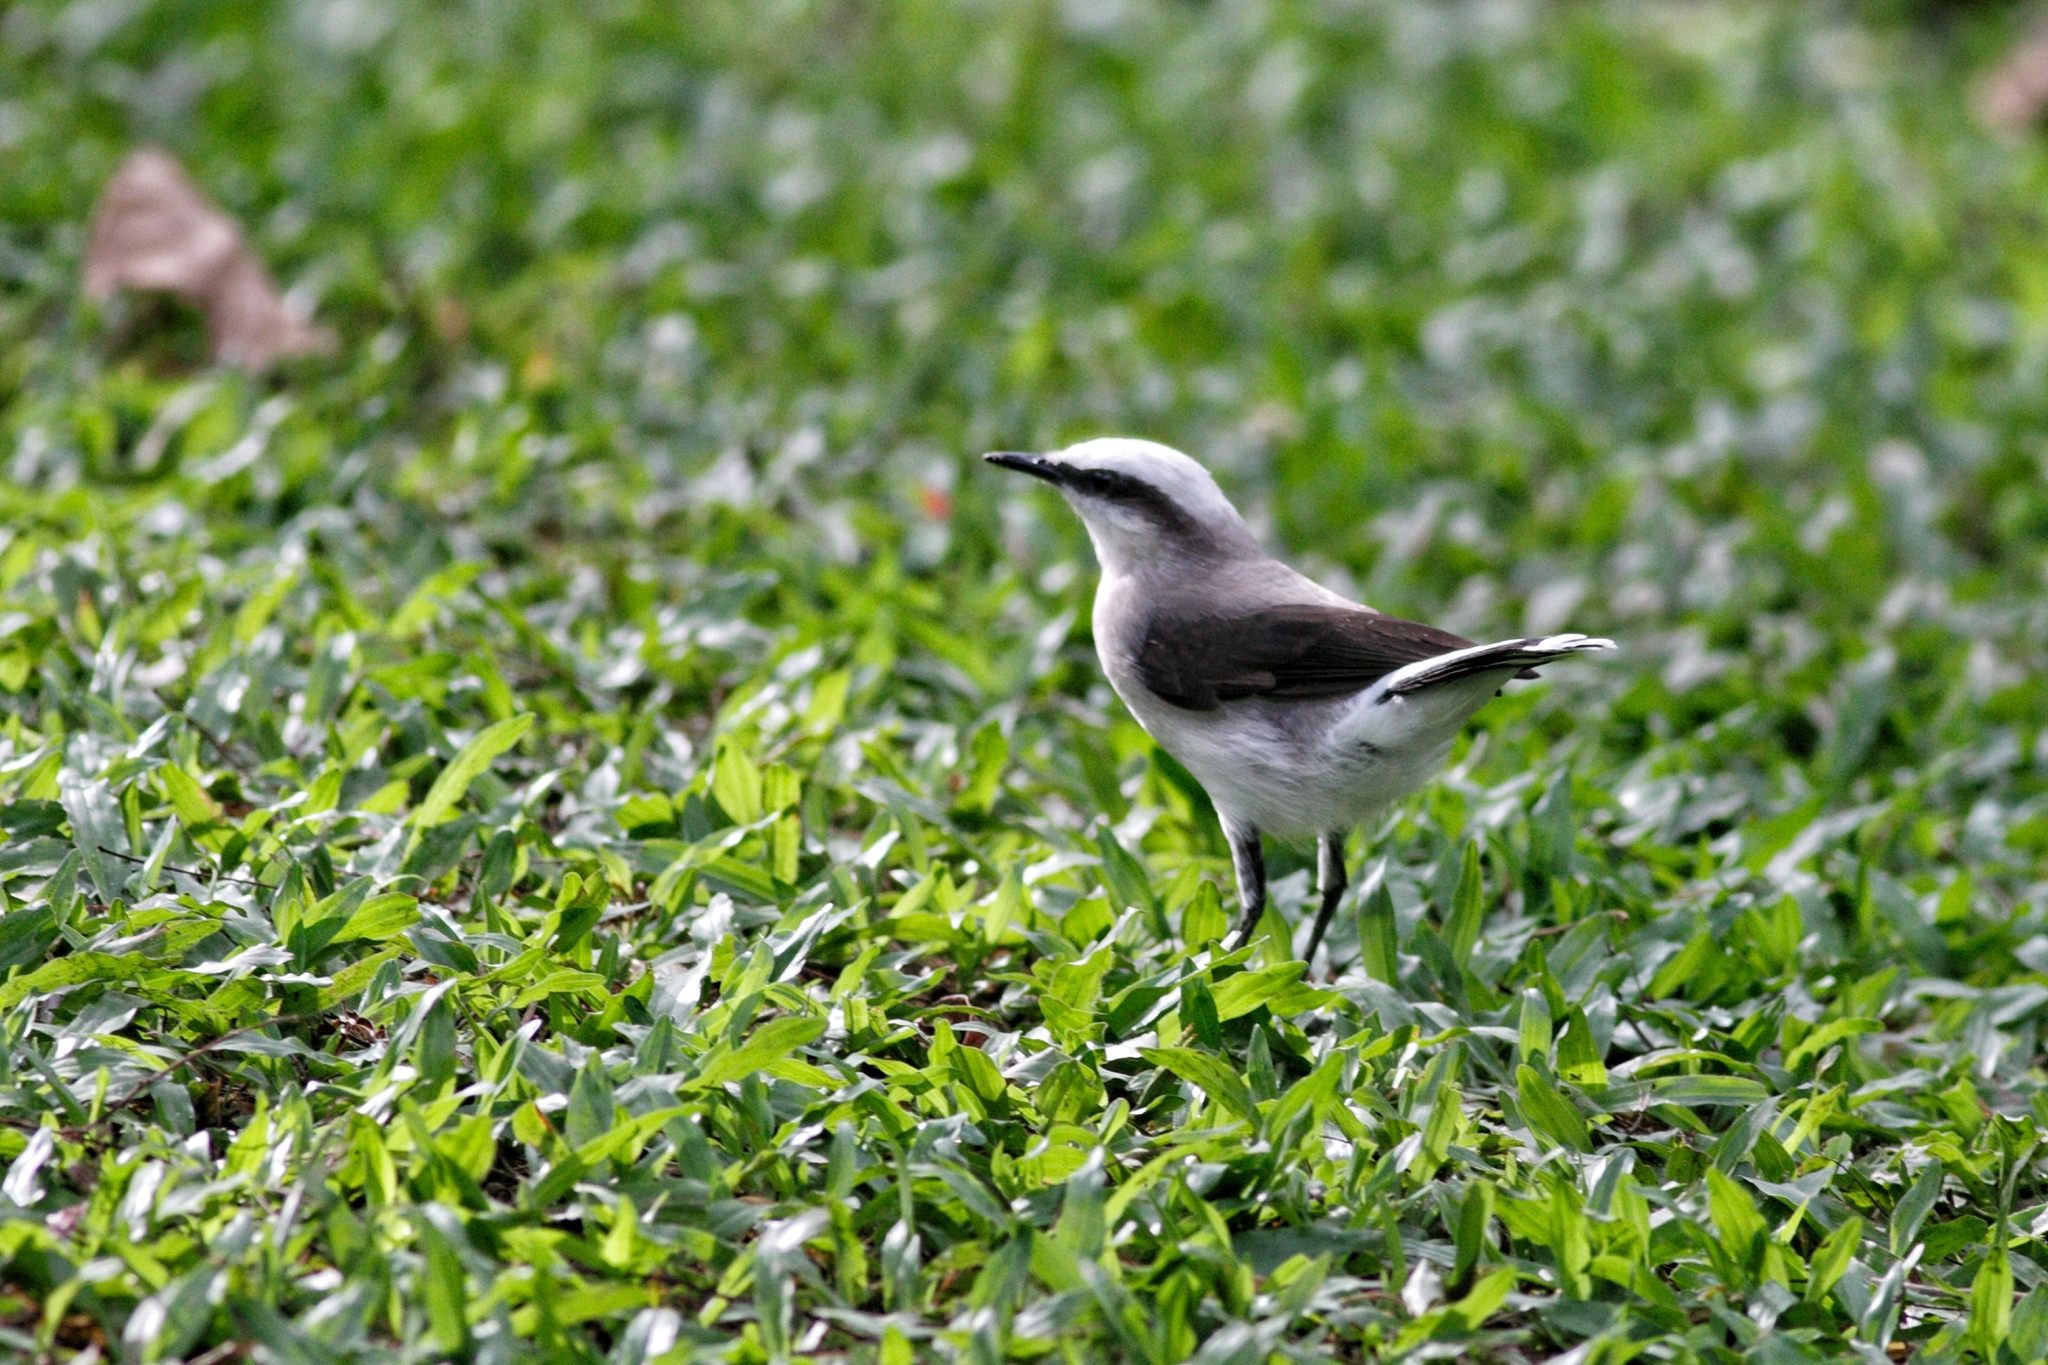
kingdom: Animalia
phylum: Chordata
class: Aves
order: Passeriformes
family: Tyrannidae
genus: Fluvicola
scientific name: Fluvicola nengeta
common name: Masked water tyrant
